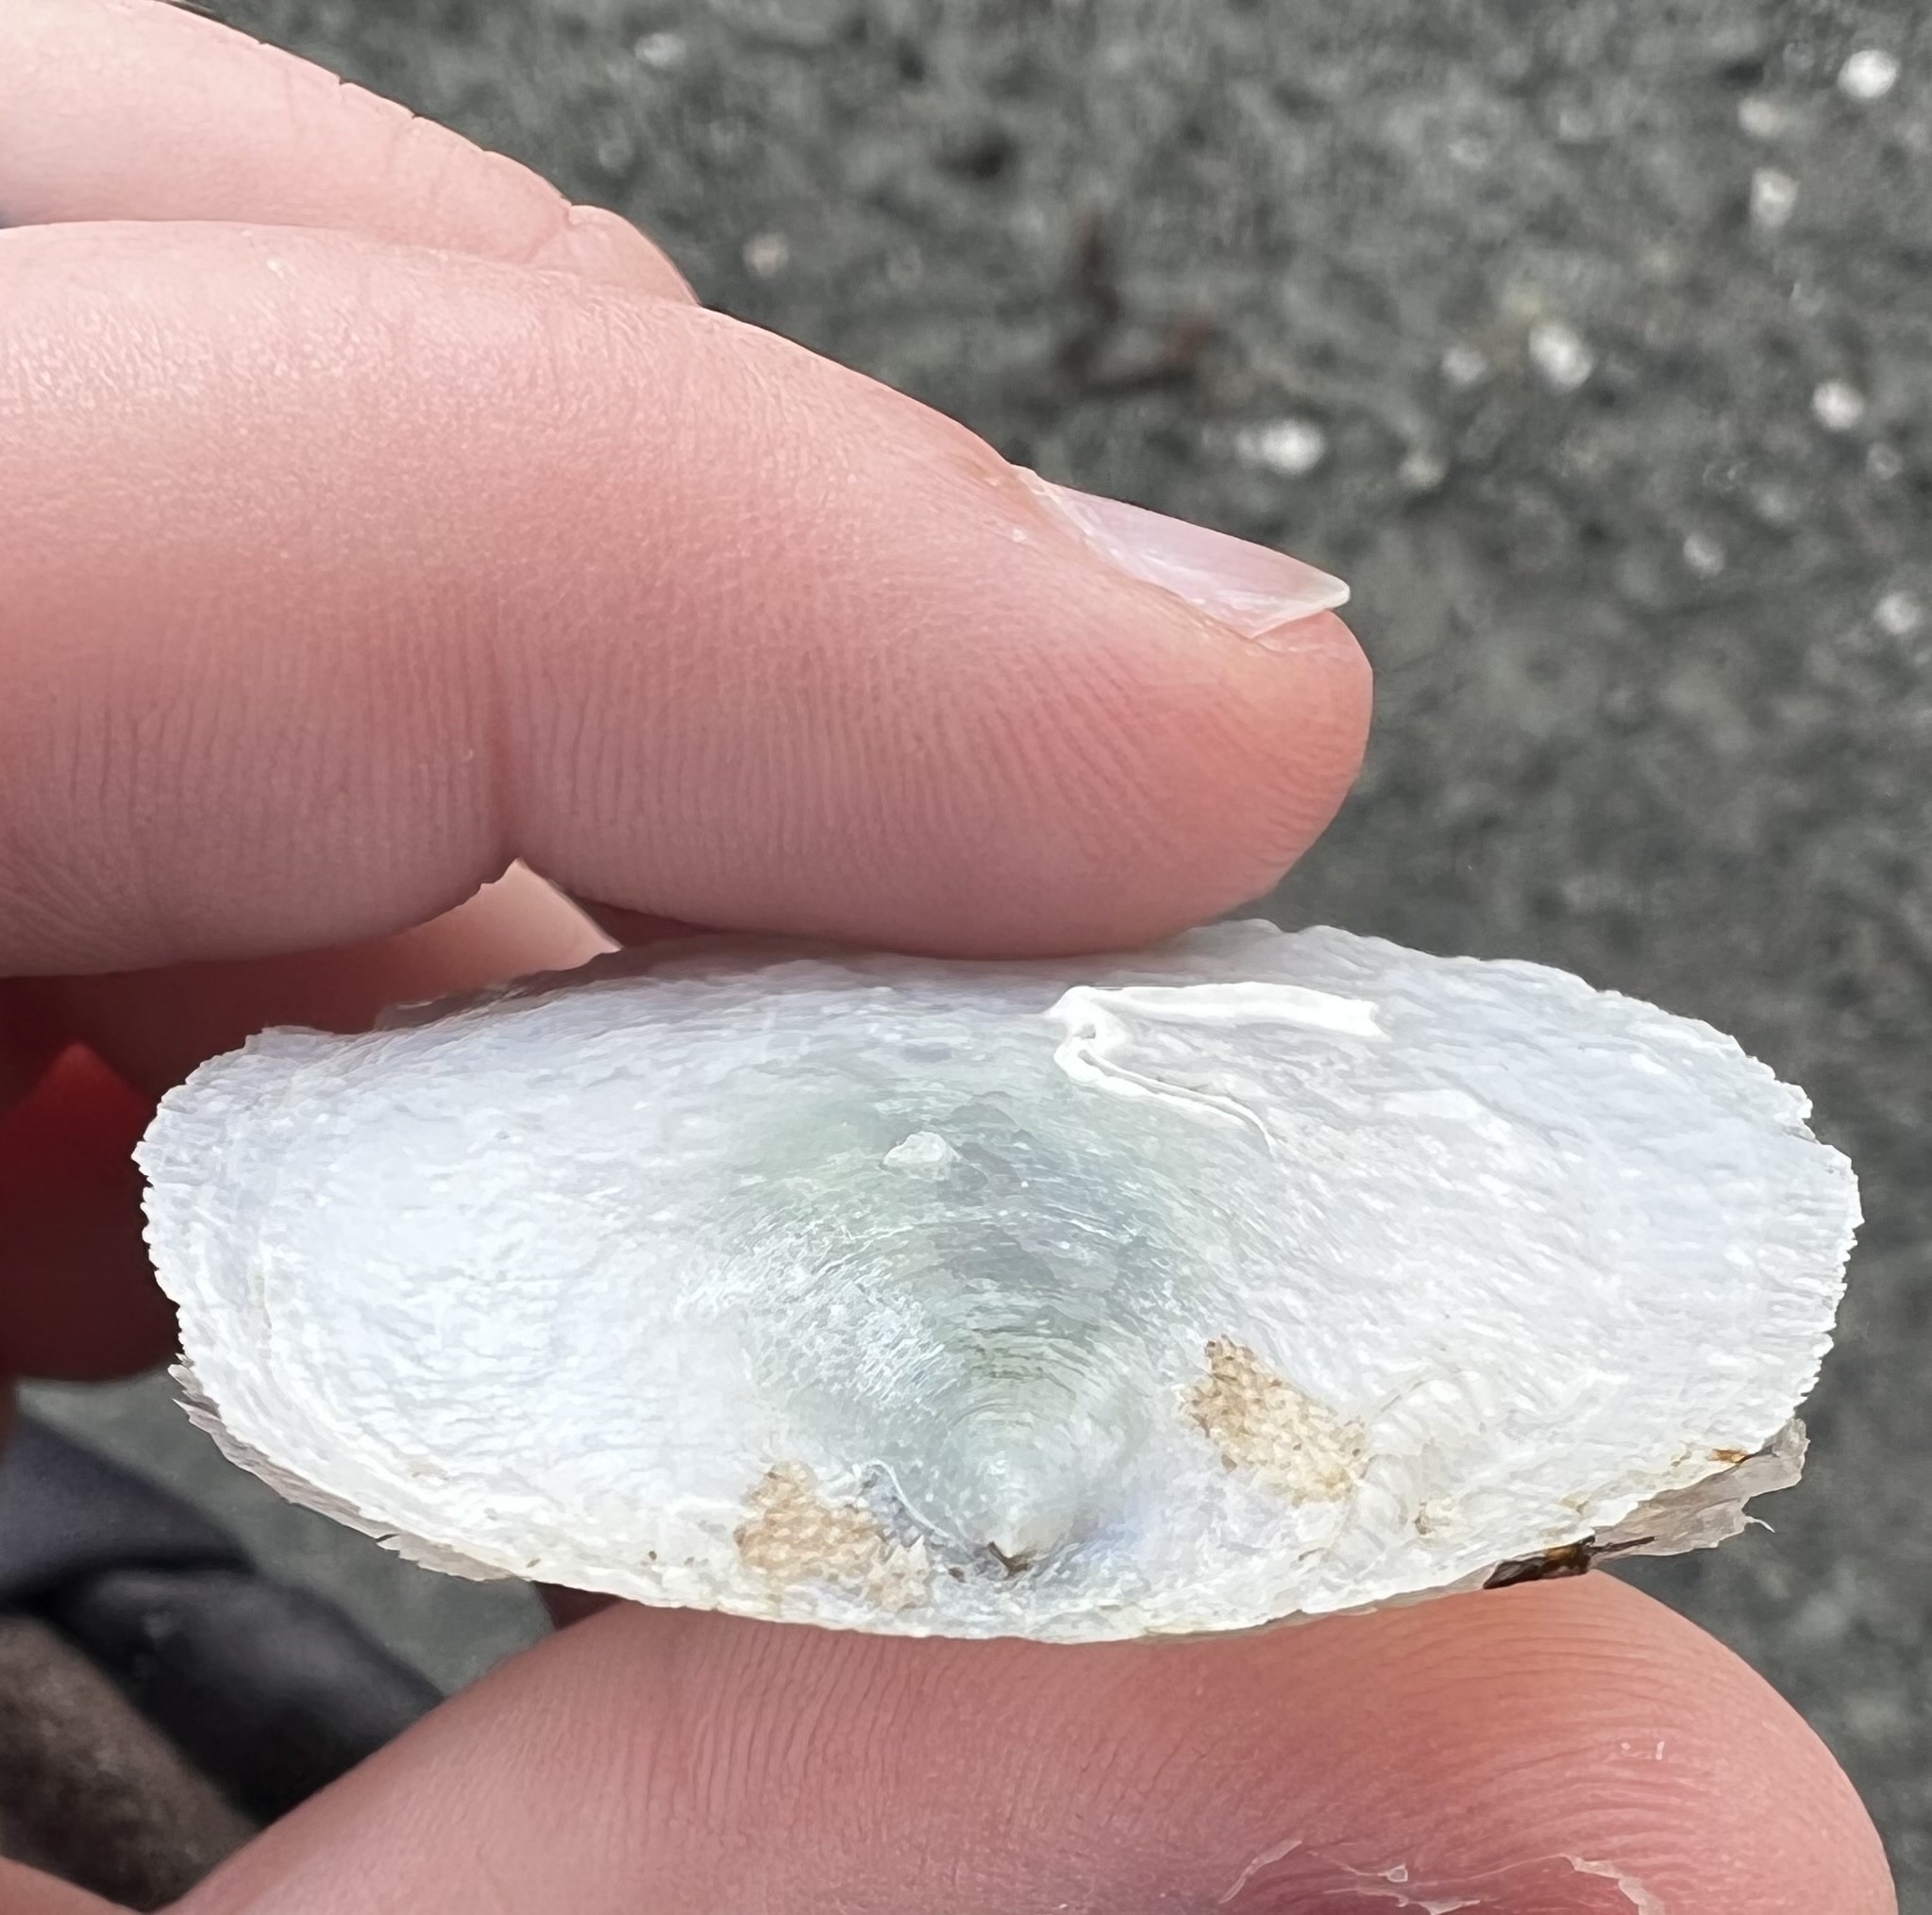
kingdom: Animalia
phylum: Mollusca
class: Bivalvia
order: Pectinida
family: Anomiidae
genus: Pododesmus
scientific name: Pododesmus macrochisma
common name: Alaska jingle
